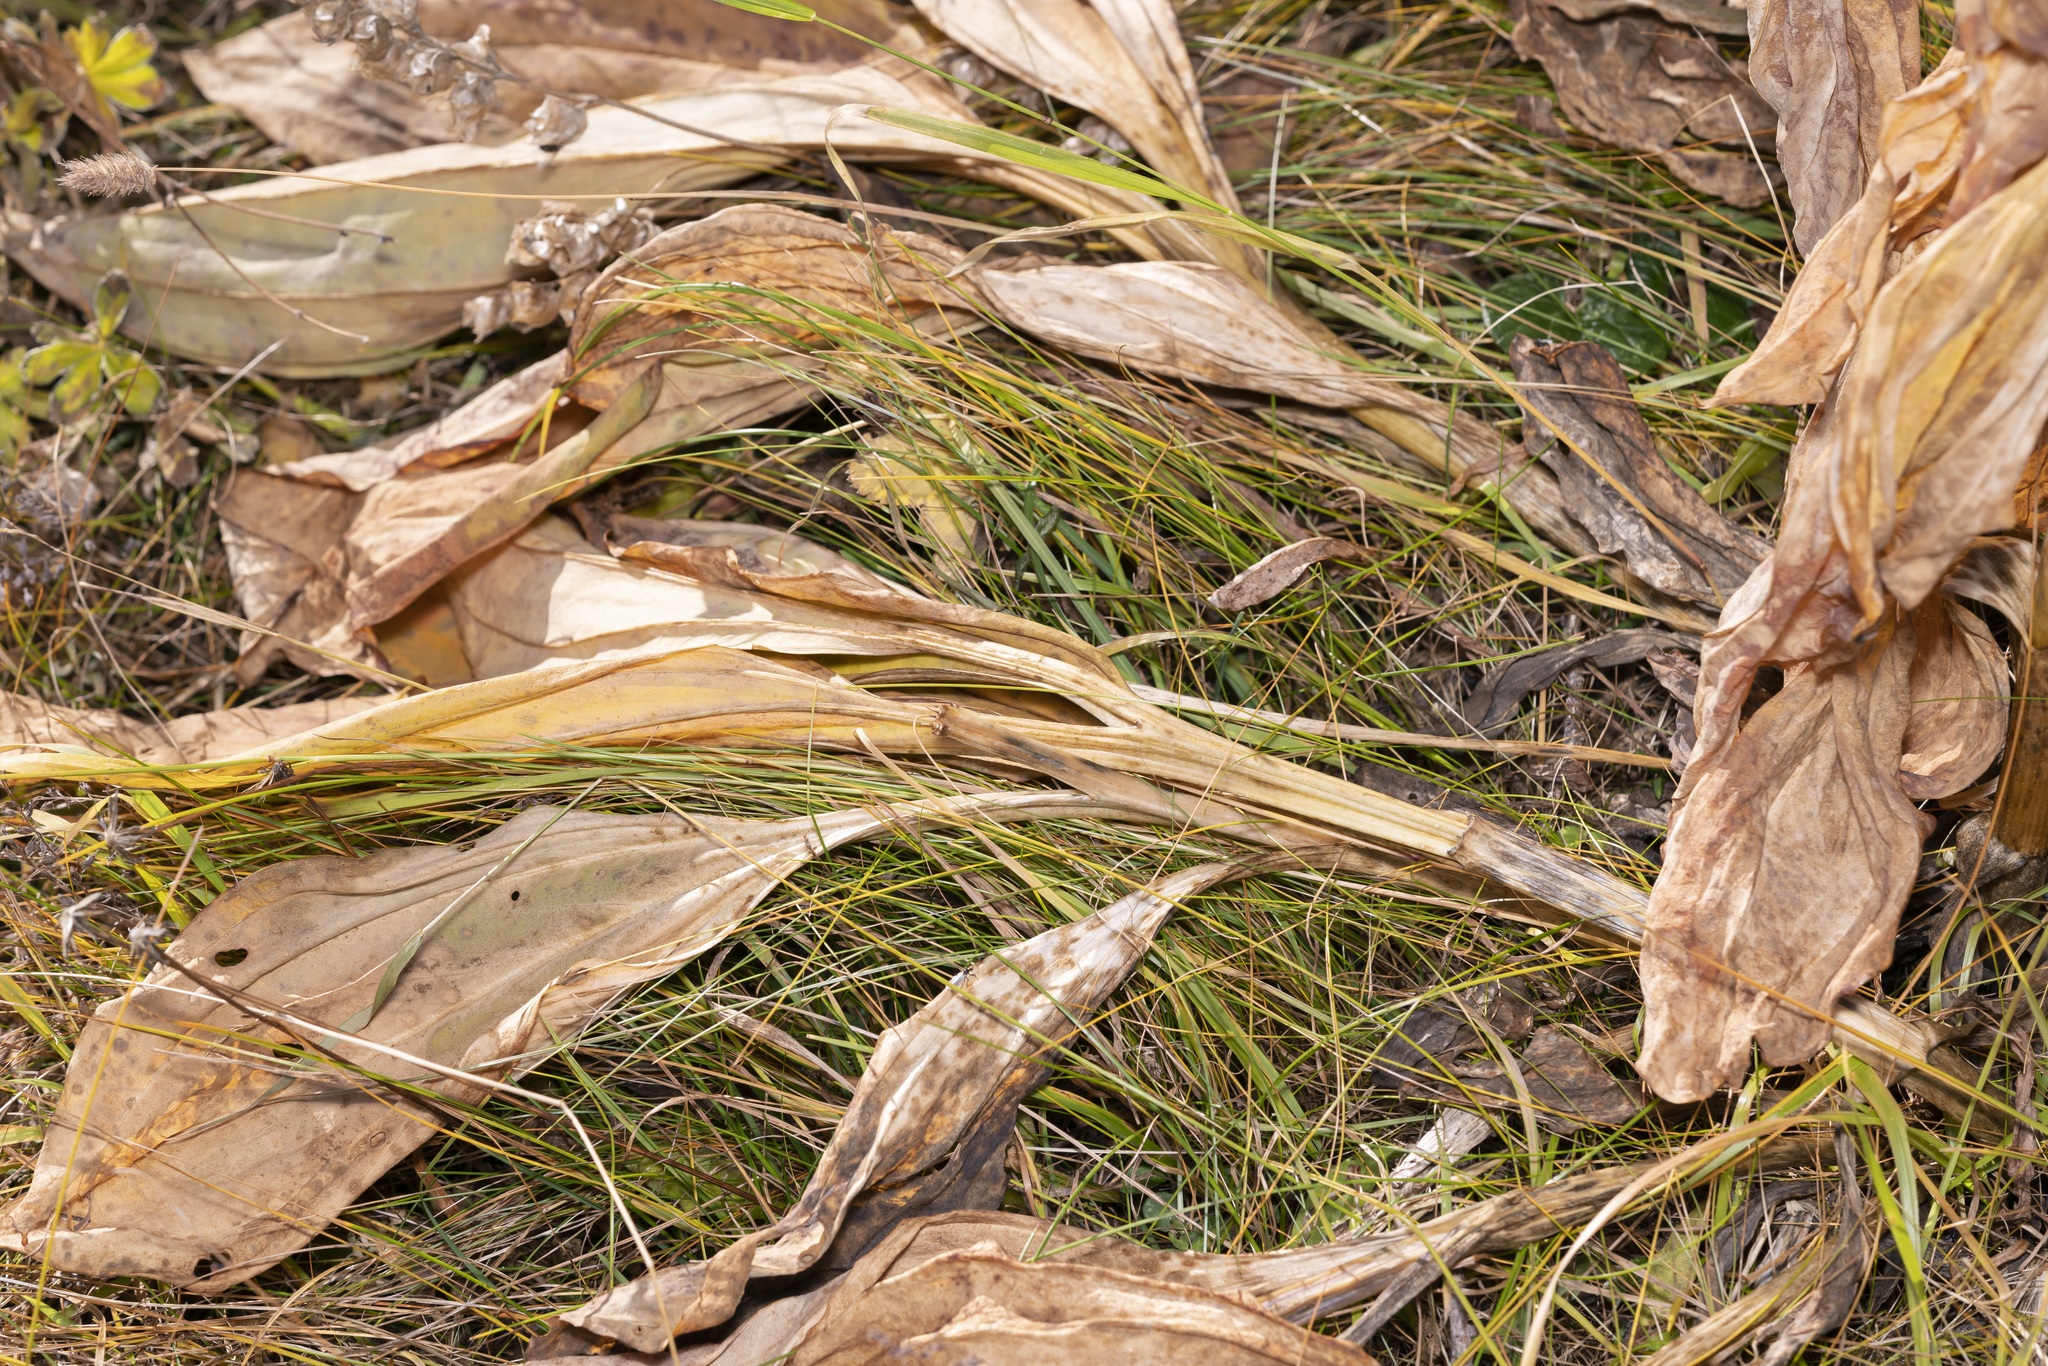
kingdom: Plantae
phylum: Tracheophyta
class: Magnoliopsida
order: Gentianales
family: Gentianaceae
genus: Gentiana
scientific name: Gentiana lutea
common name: Great yellow gentian
